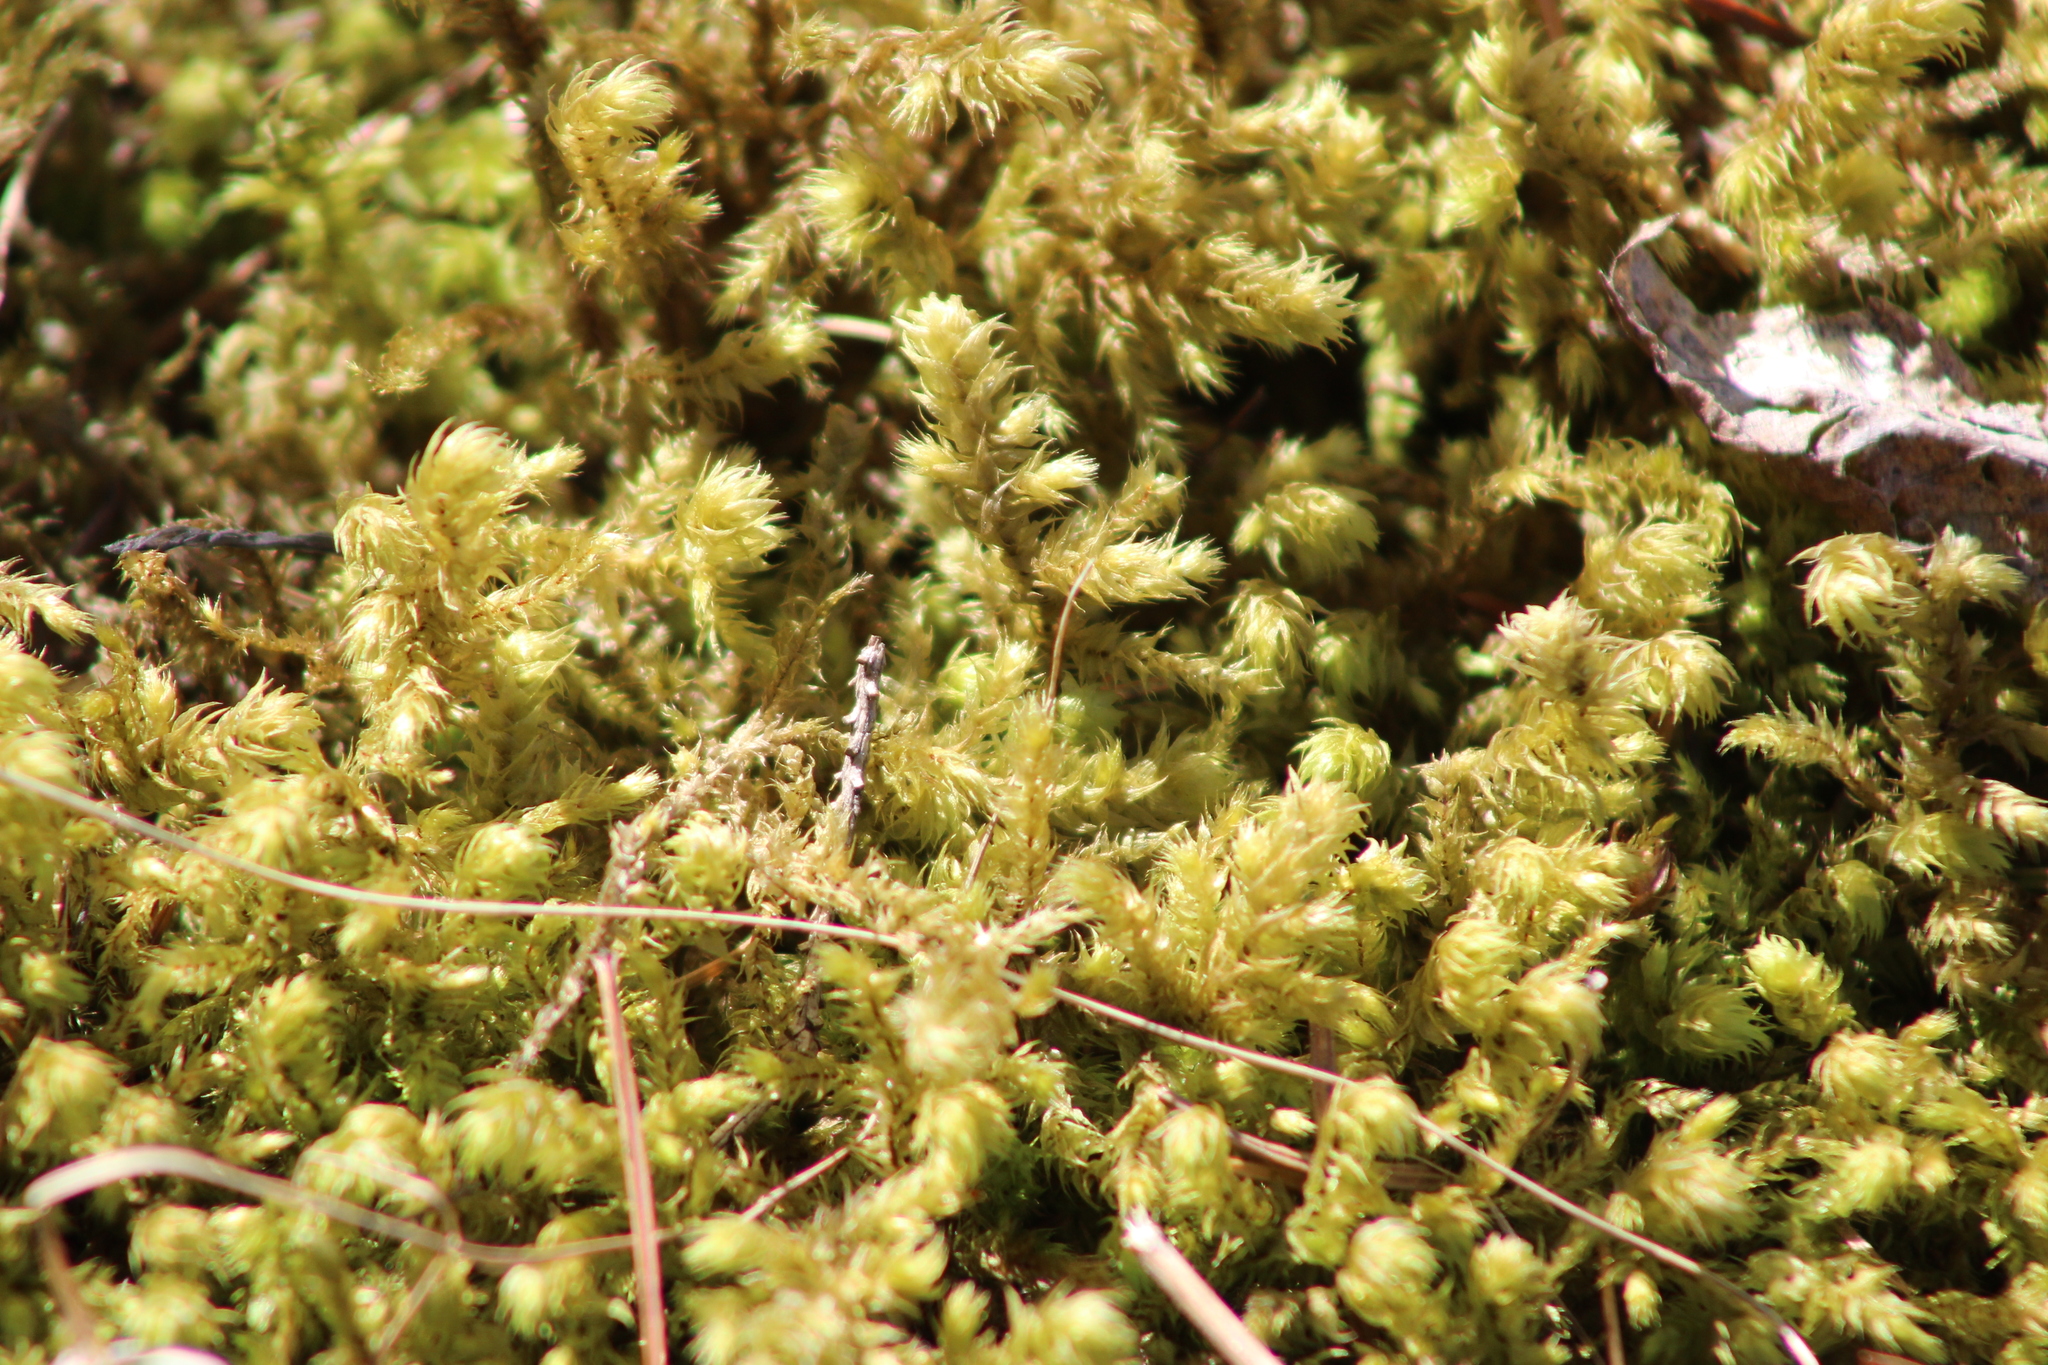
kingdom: Plantae
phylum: Bryophyta
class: Bryopsida
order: Hypnales
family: Hylocomiaceae
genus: Hylocomiadelphus
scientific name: Hylocomiadelphus triquetrus
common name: Rough goose neck moss
